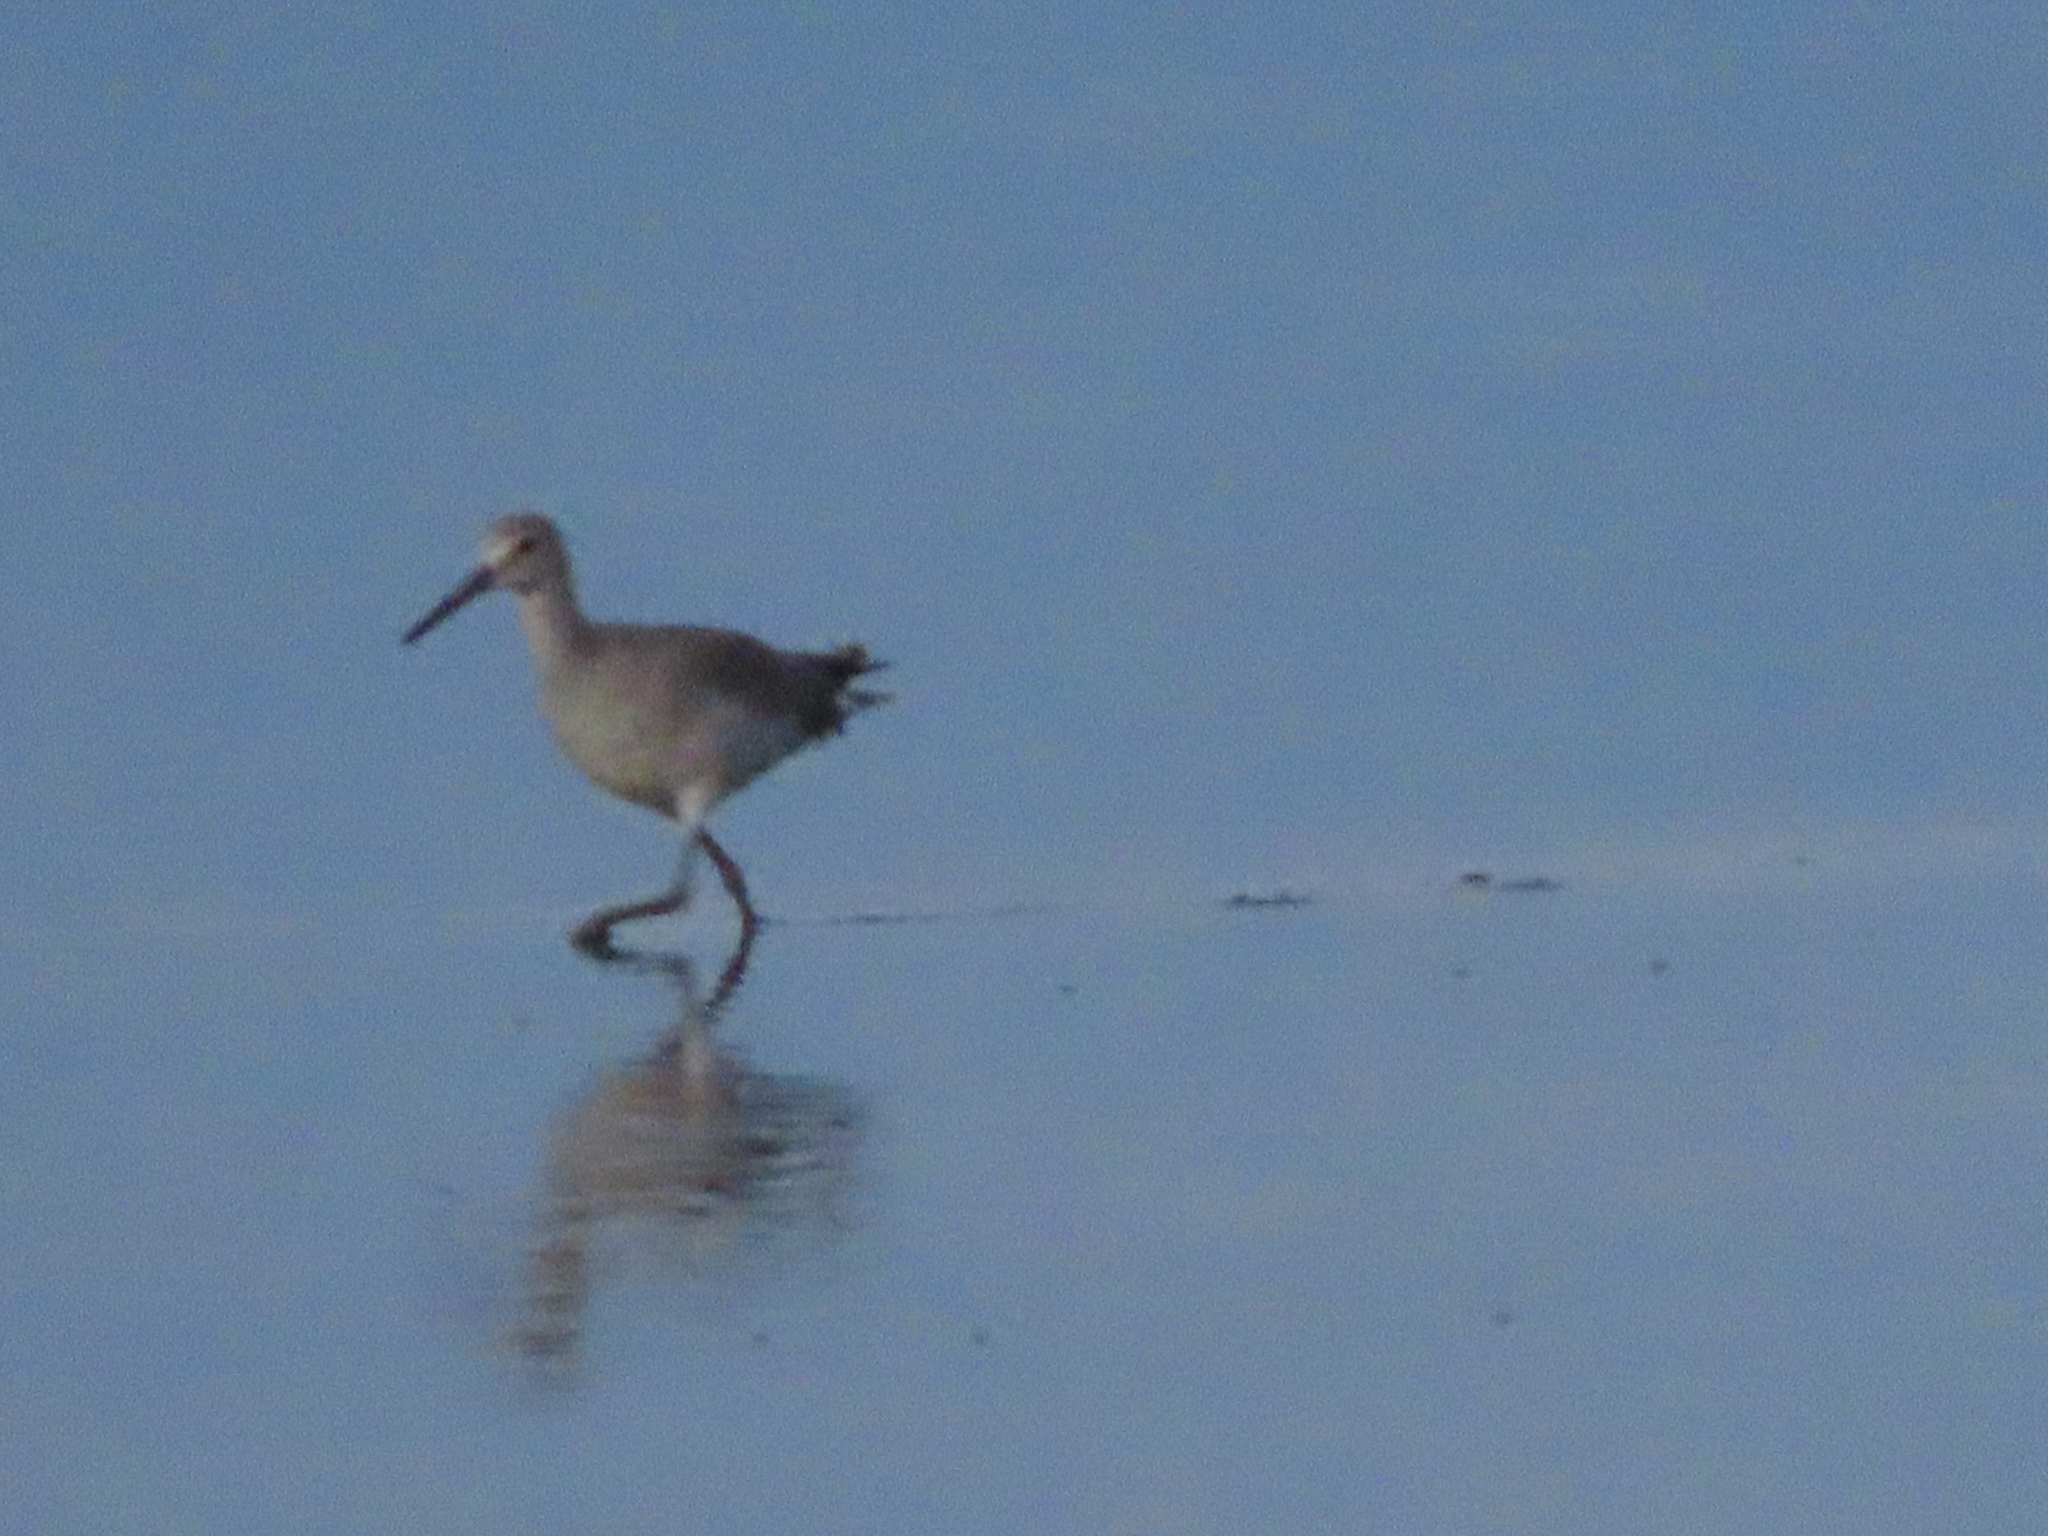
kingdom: Animalia
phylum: Chordata
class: Aves
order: Charadriiformes
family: Scolopacidae
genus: Tringa
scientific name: Tringa semipalmata
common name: Willet
